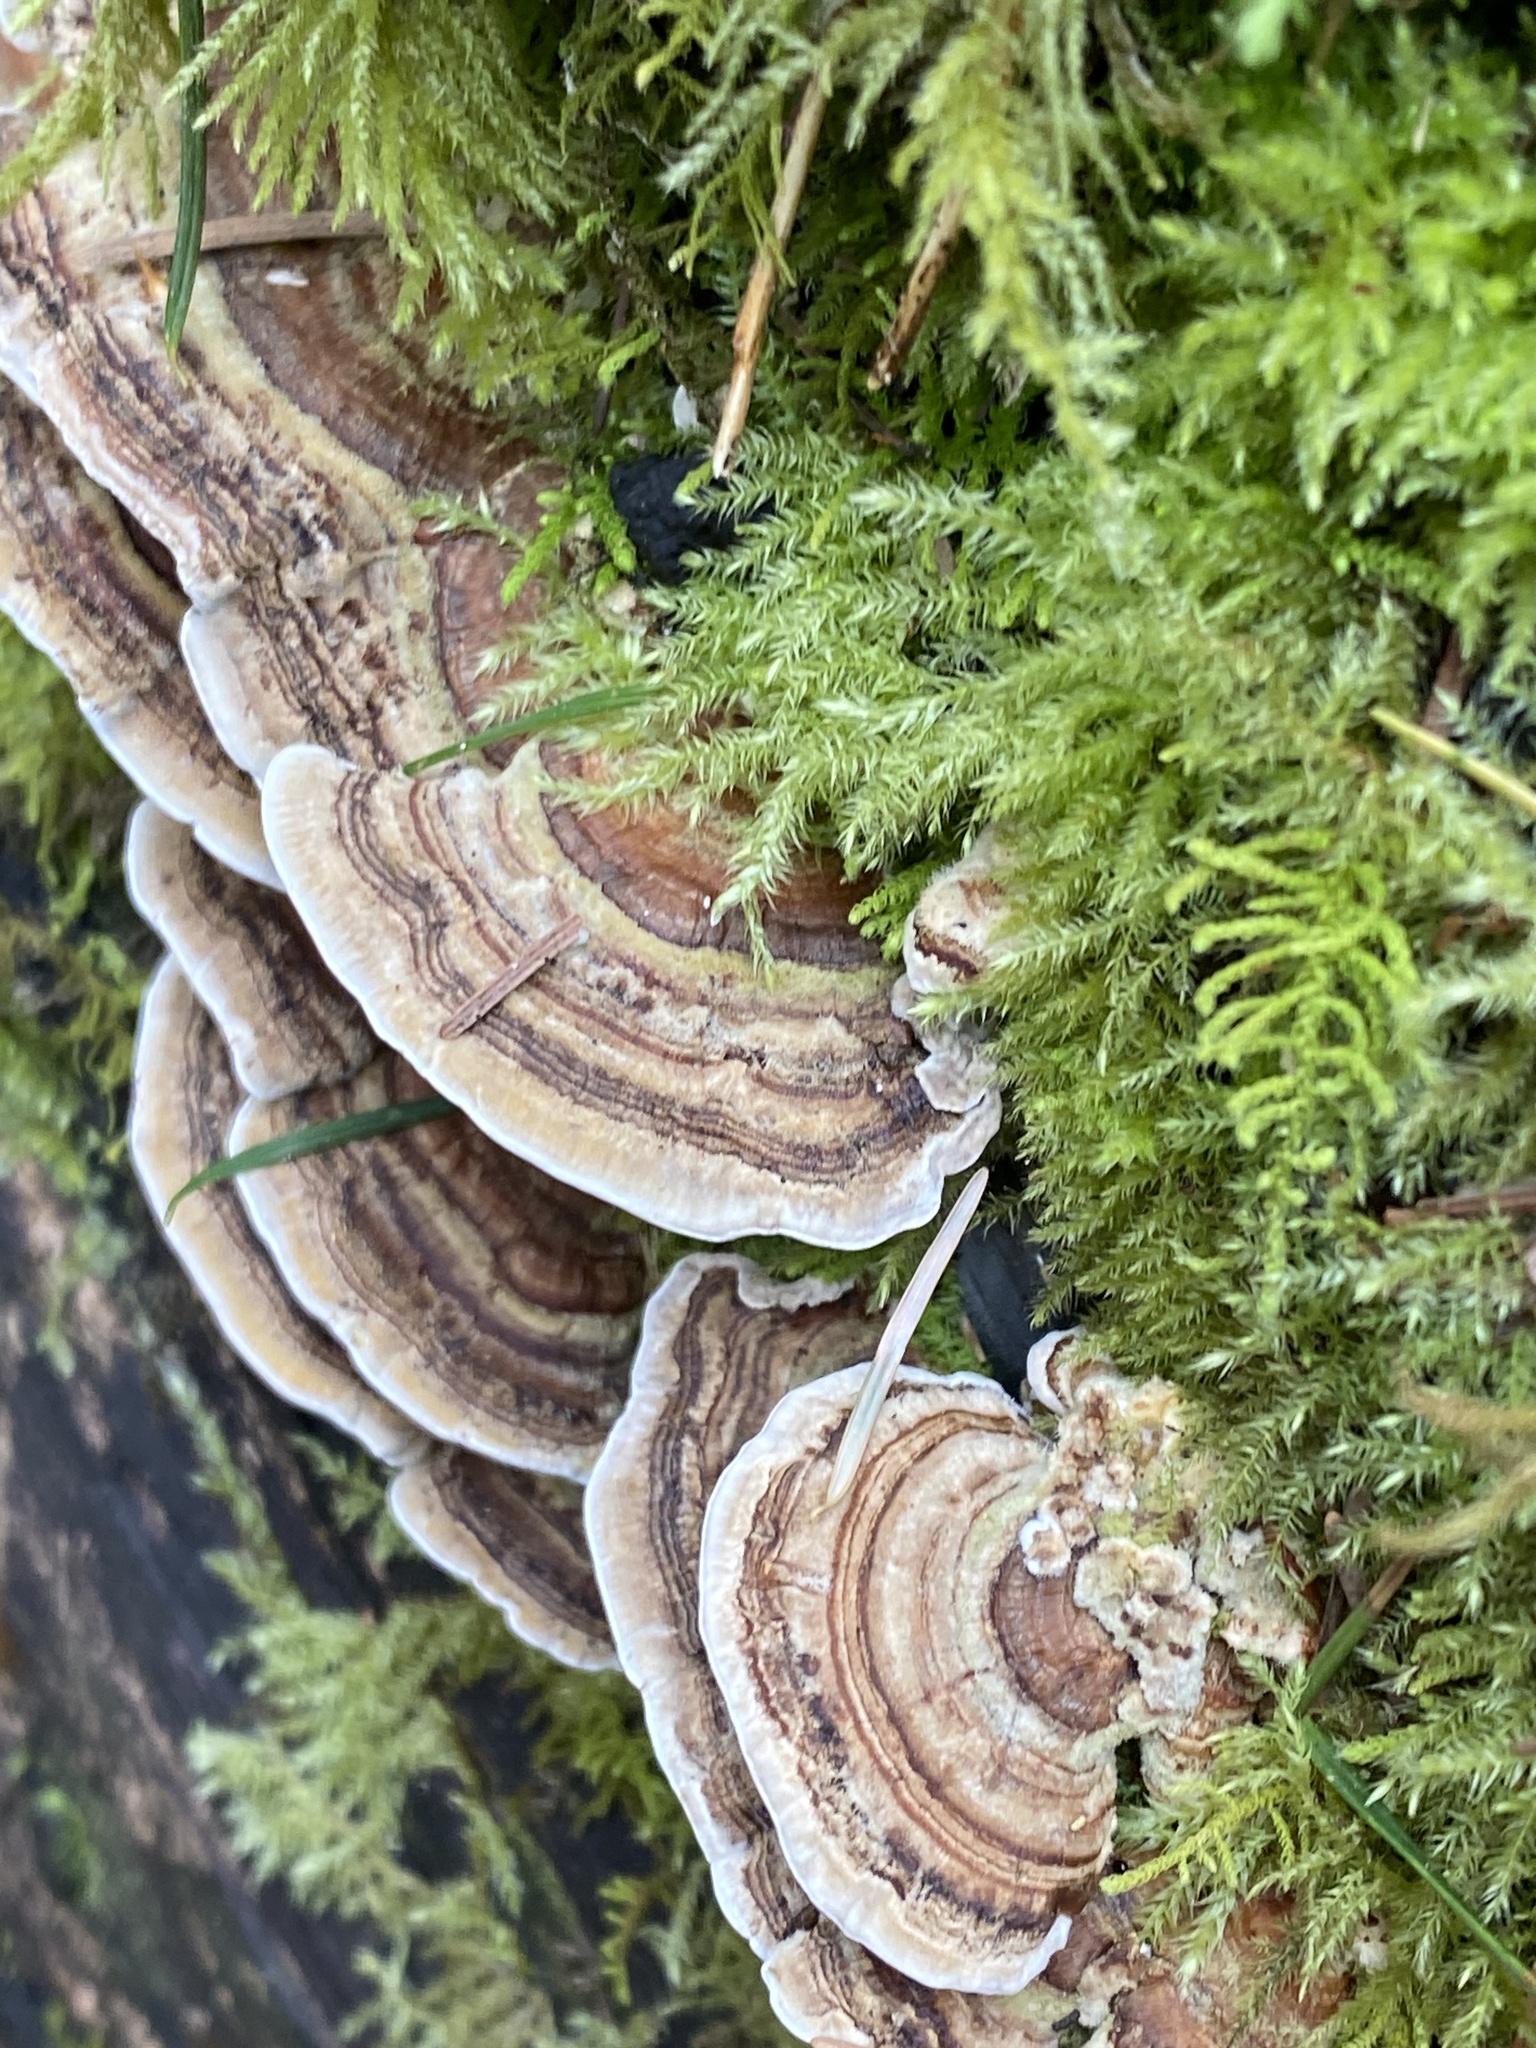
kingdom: Fungi
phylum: Basidiomycota
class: Agaricomycetes
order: Polyporales
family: Polyporaceae
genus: Trametes
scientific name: Trametes versicolor
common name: Turkeytail
